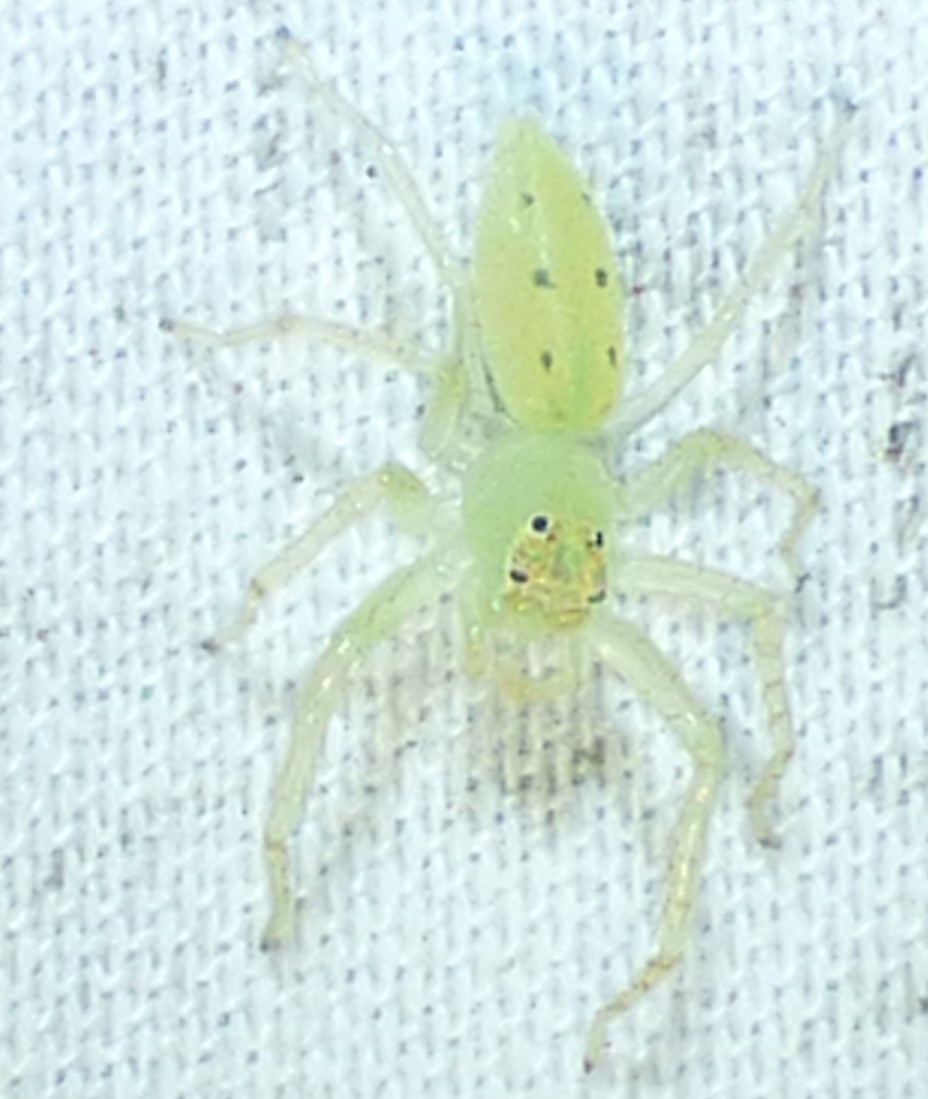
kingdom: Animalia
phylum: Arthropoda
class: Arachnida
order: Araneae
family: Salticidae
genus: Lyssomanes
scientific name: Lyssomanes viridis
